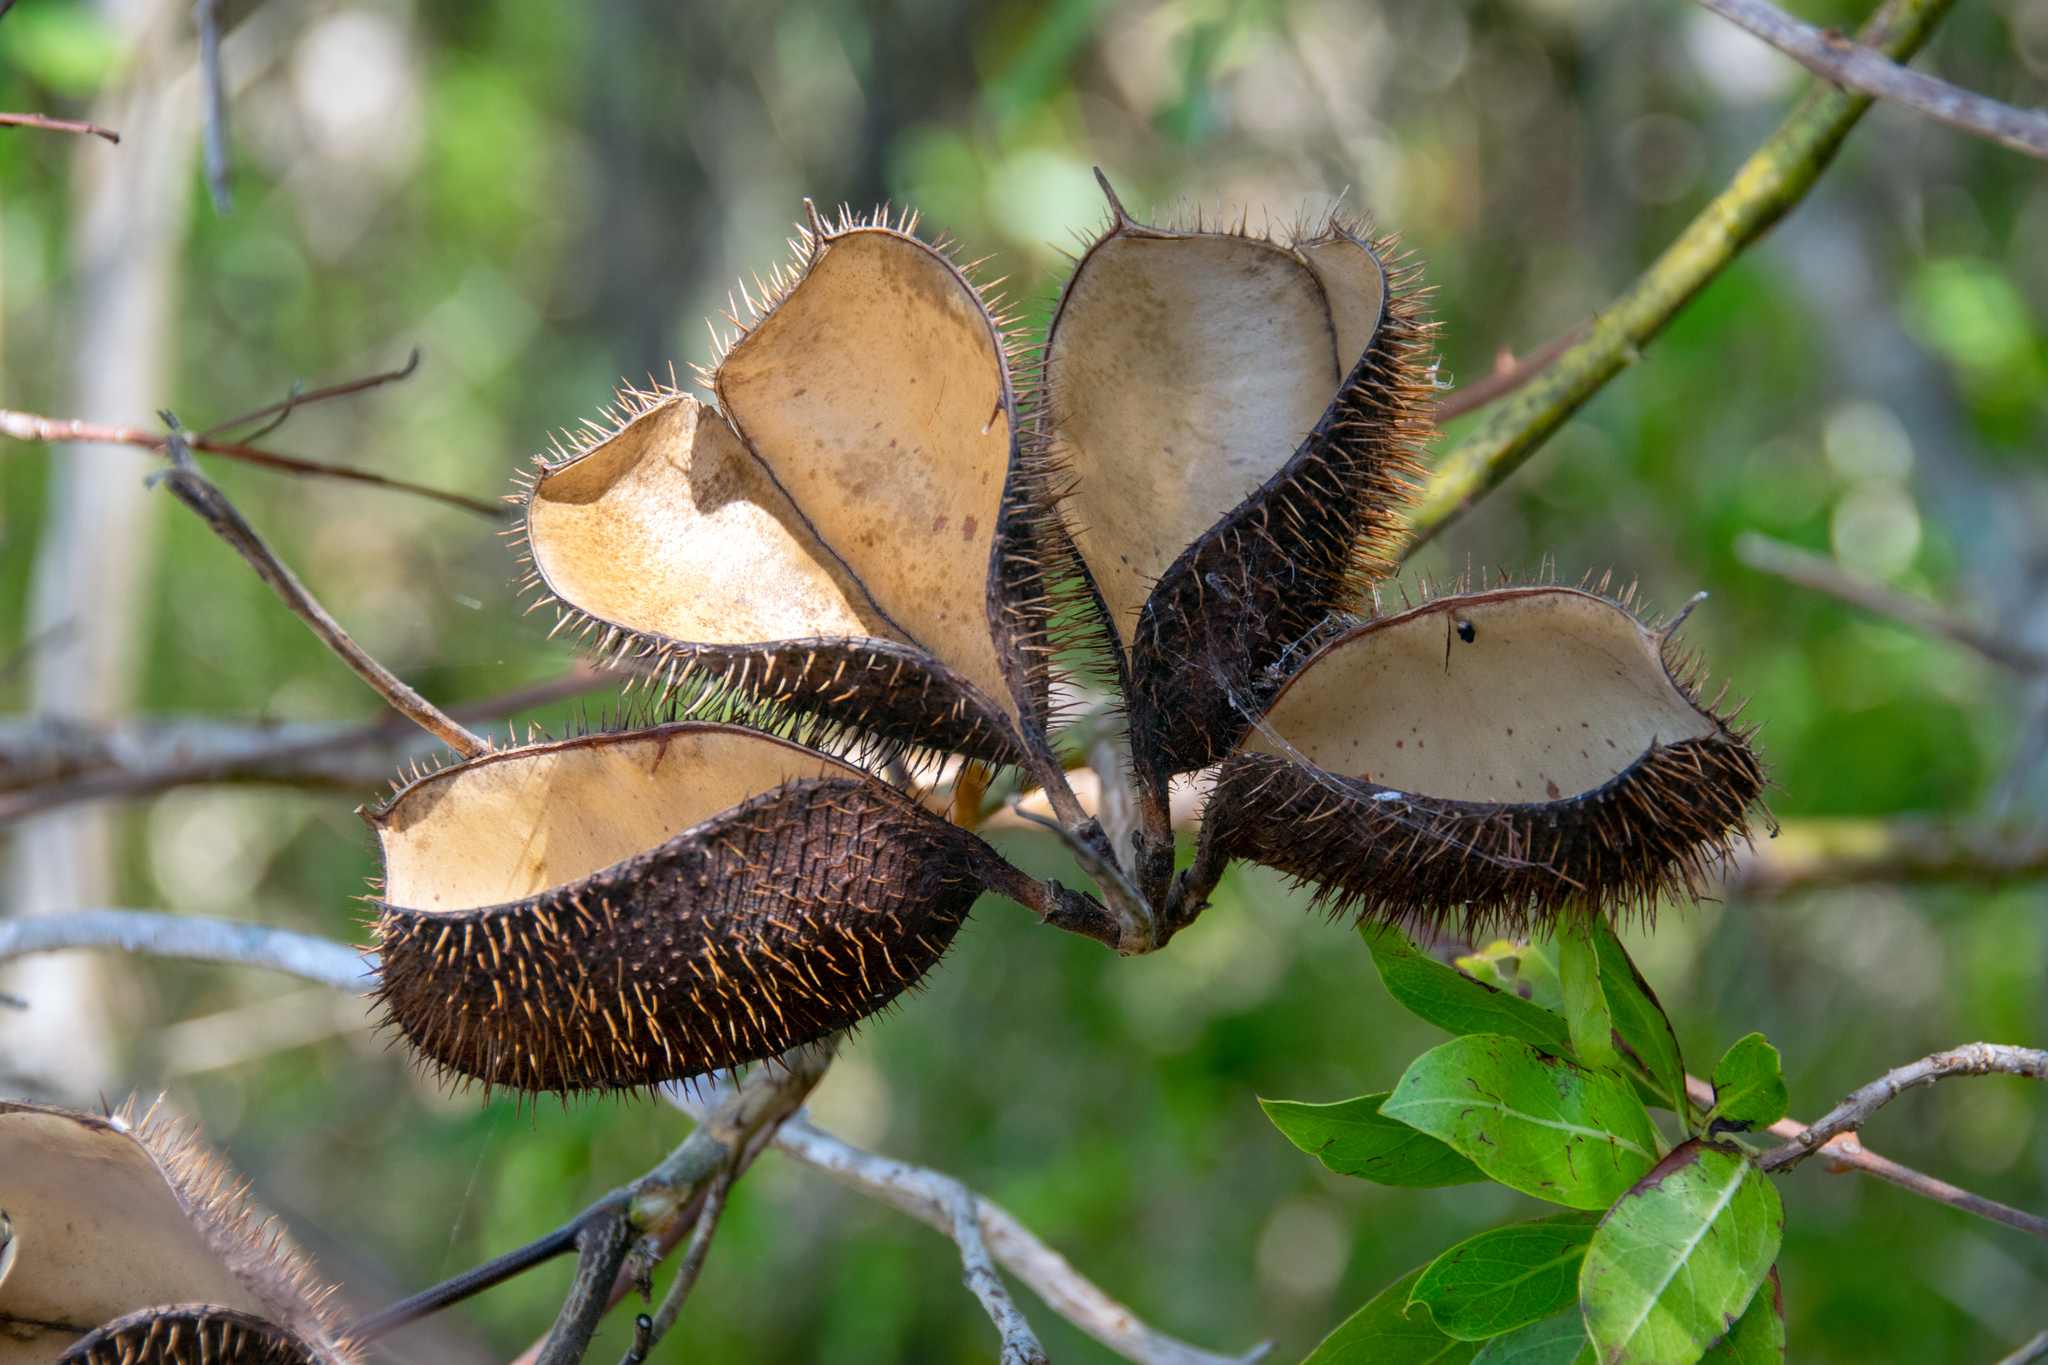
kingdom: Plantae
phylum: Tracheophyta
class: Magnoliopsida
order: Fabales
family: Fabaceae
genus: Guilandina
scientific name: Guilandina bonduc
